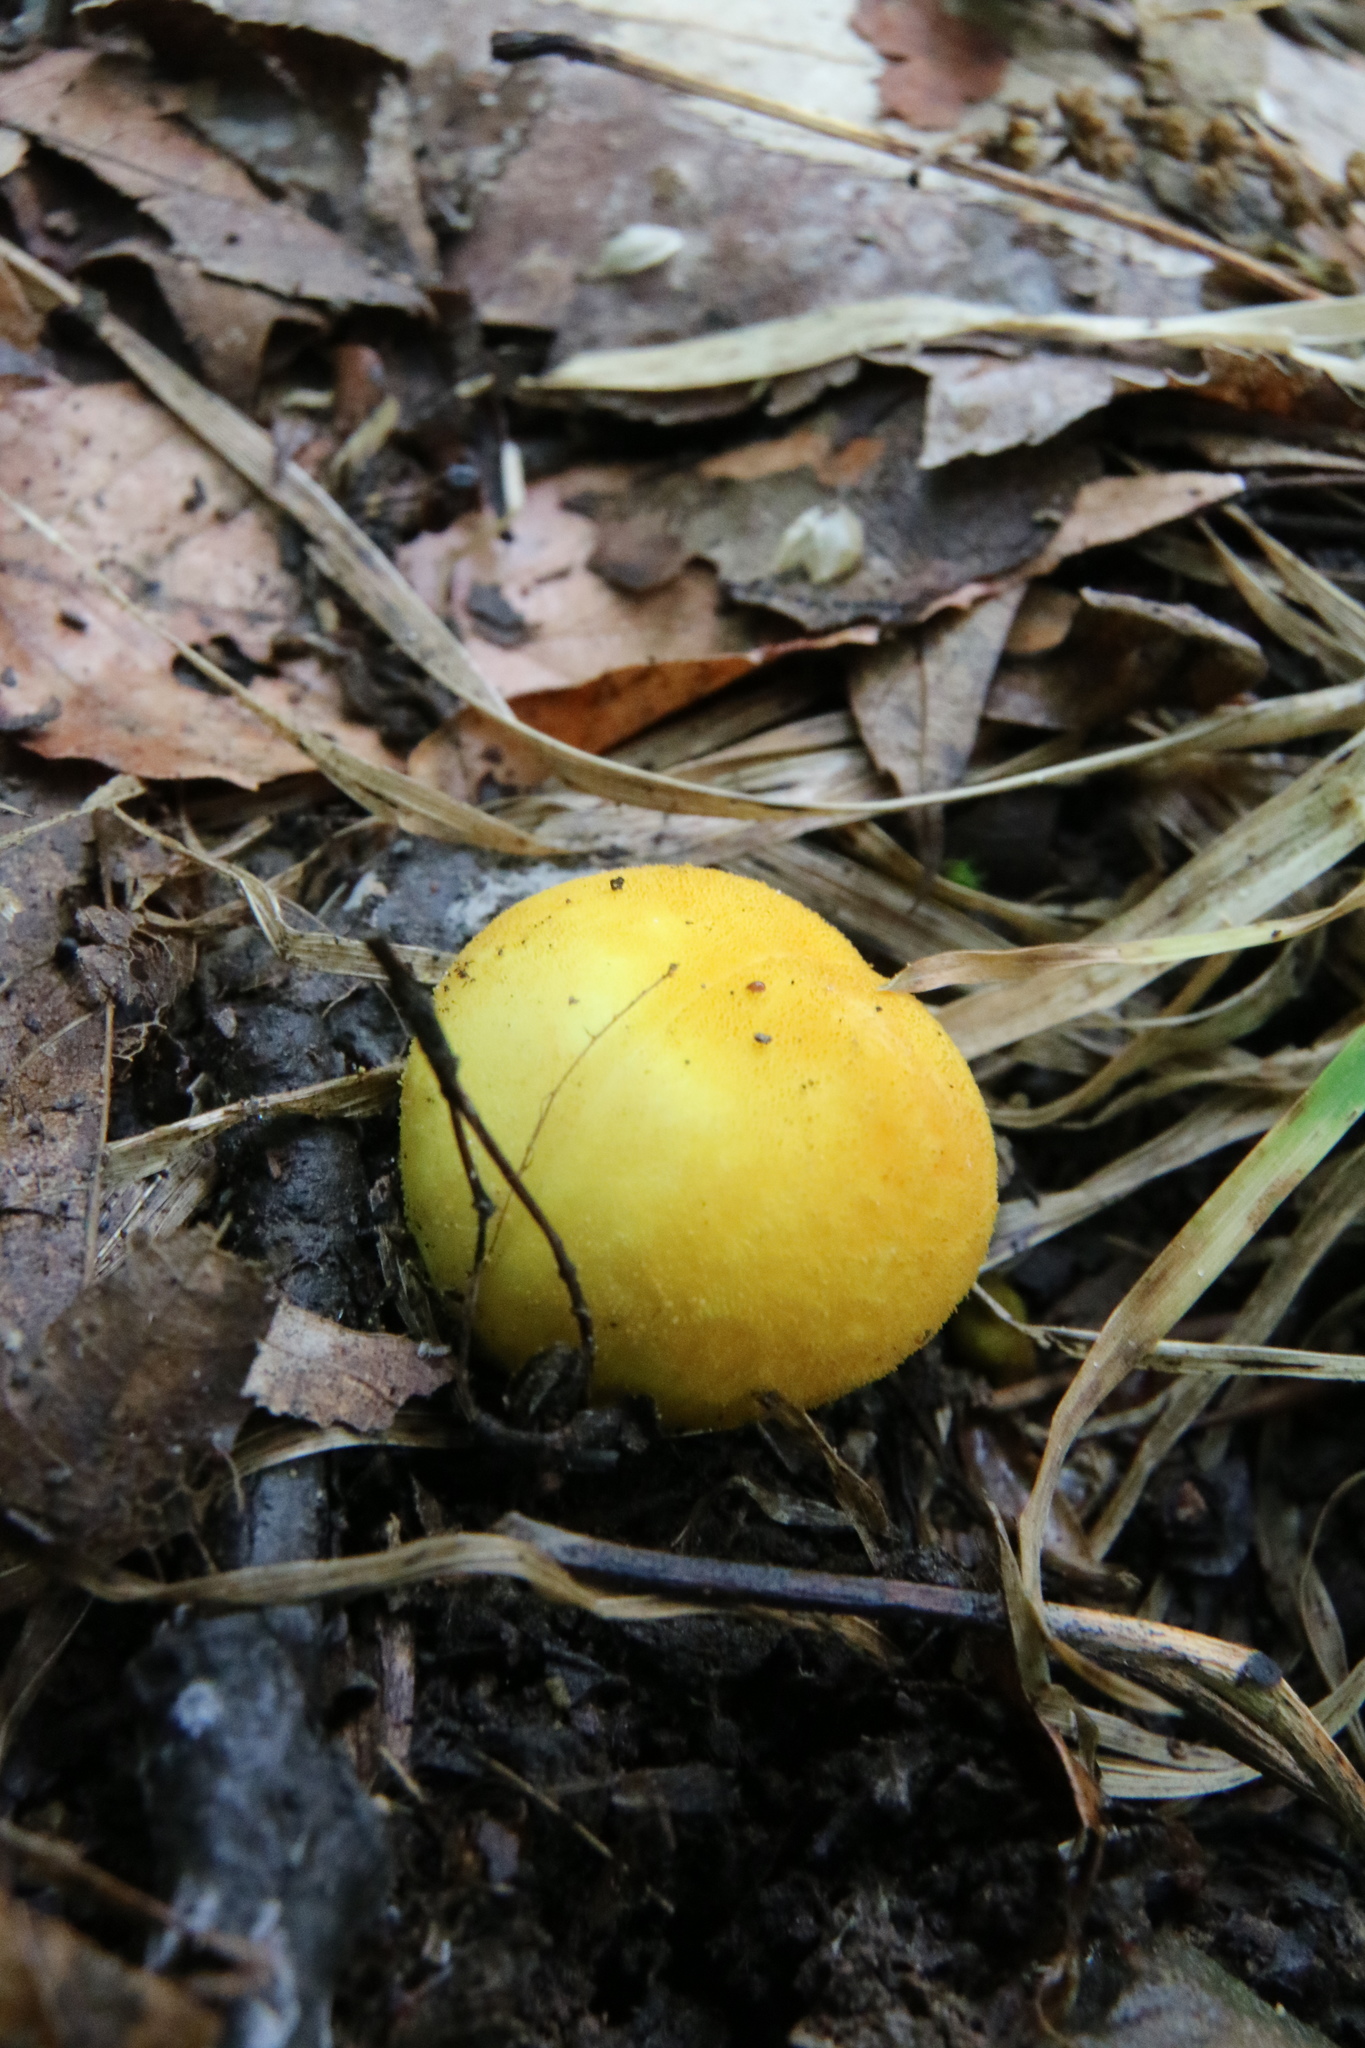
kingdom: Fungi
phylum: Basidiomycota
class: Agaricomycetes
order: Agaricales
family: Lycoperdaceae
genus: Bovista
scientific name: Bovista colorata
